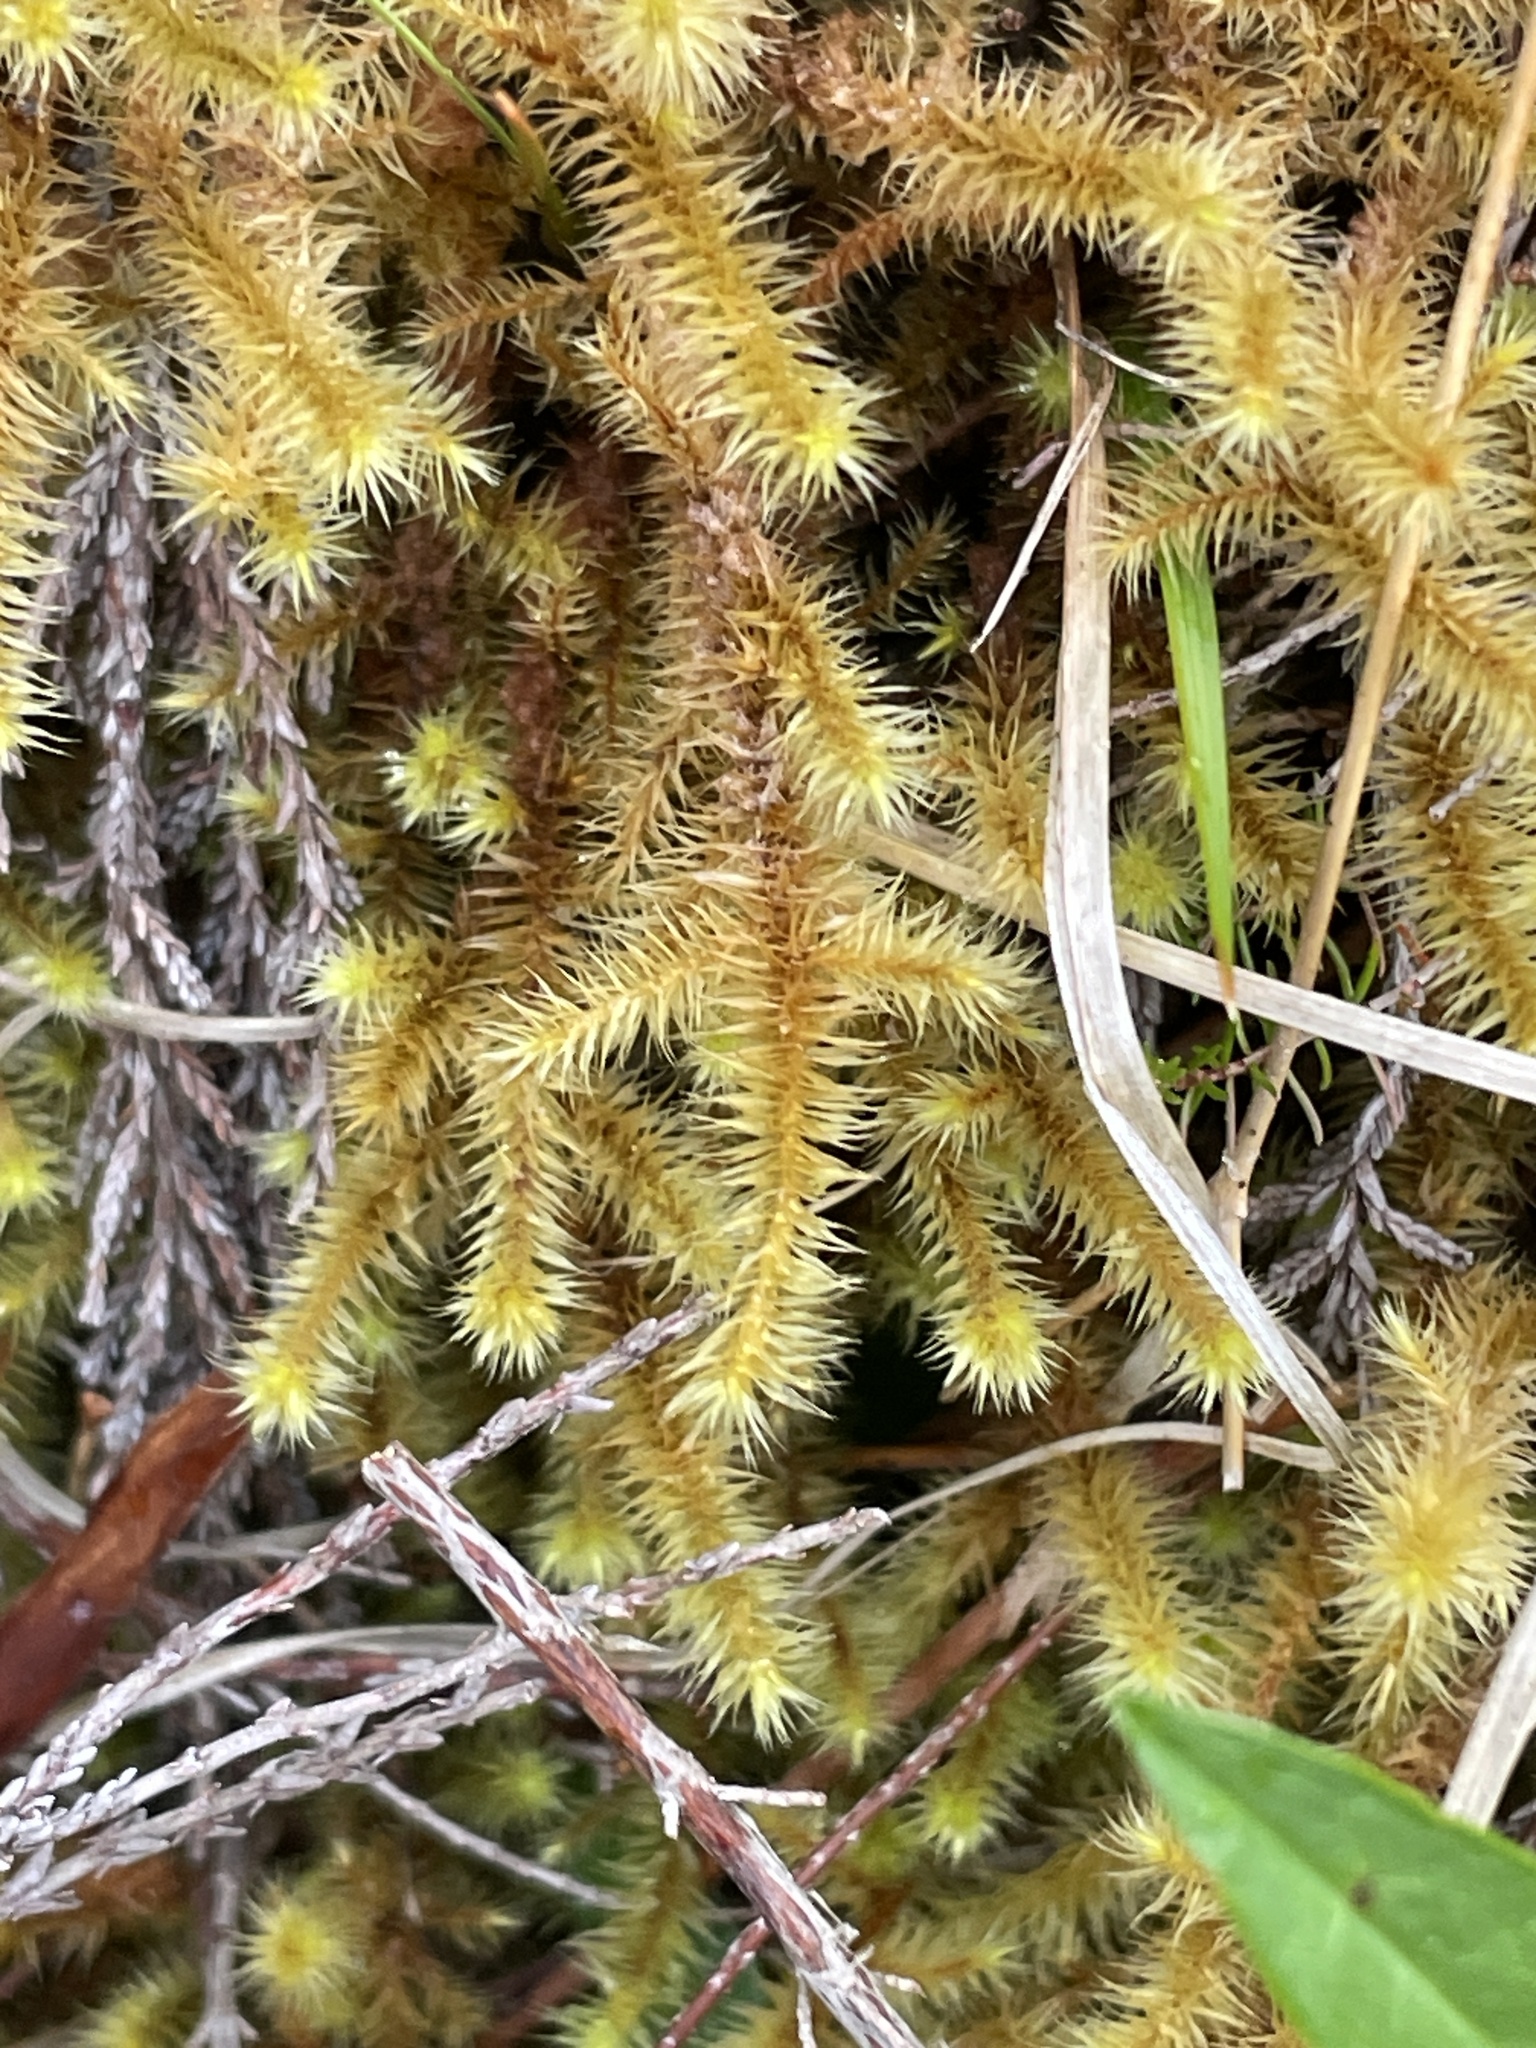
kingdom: Plantae
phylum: Bryophyta
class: Bryopsida
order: Bartramiales
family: Bartramiaceae
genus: Breutelia
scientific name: Breutelia chrysocoma
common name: Bottle-brush moss
